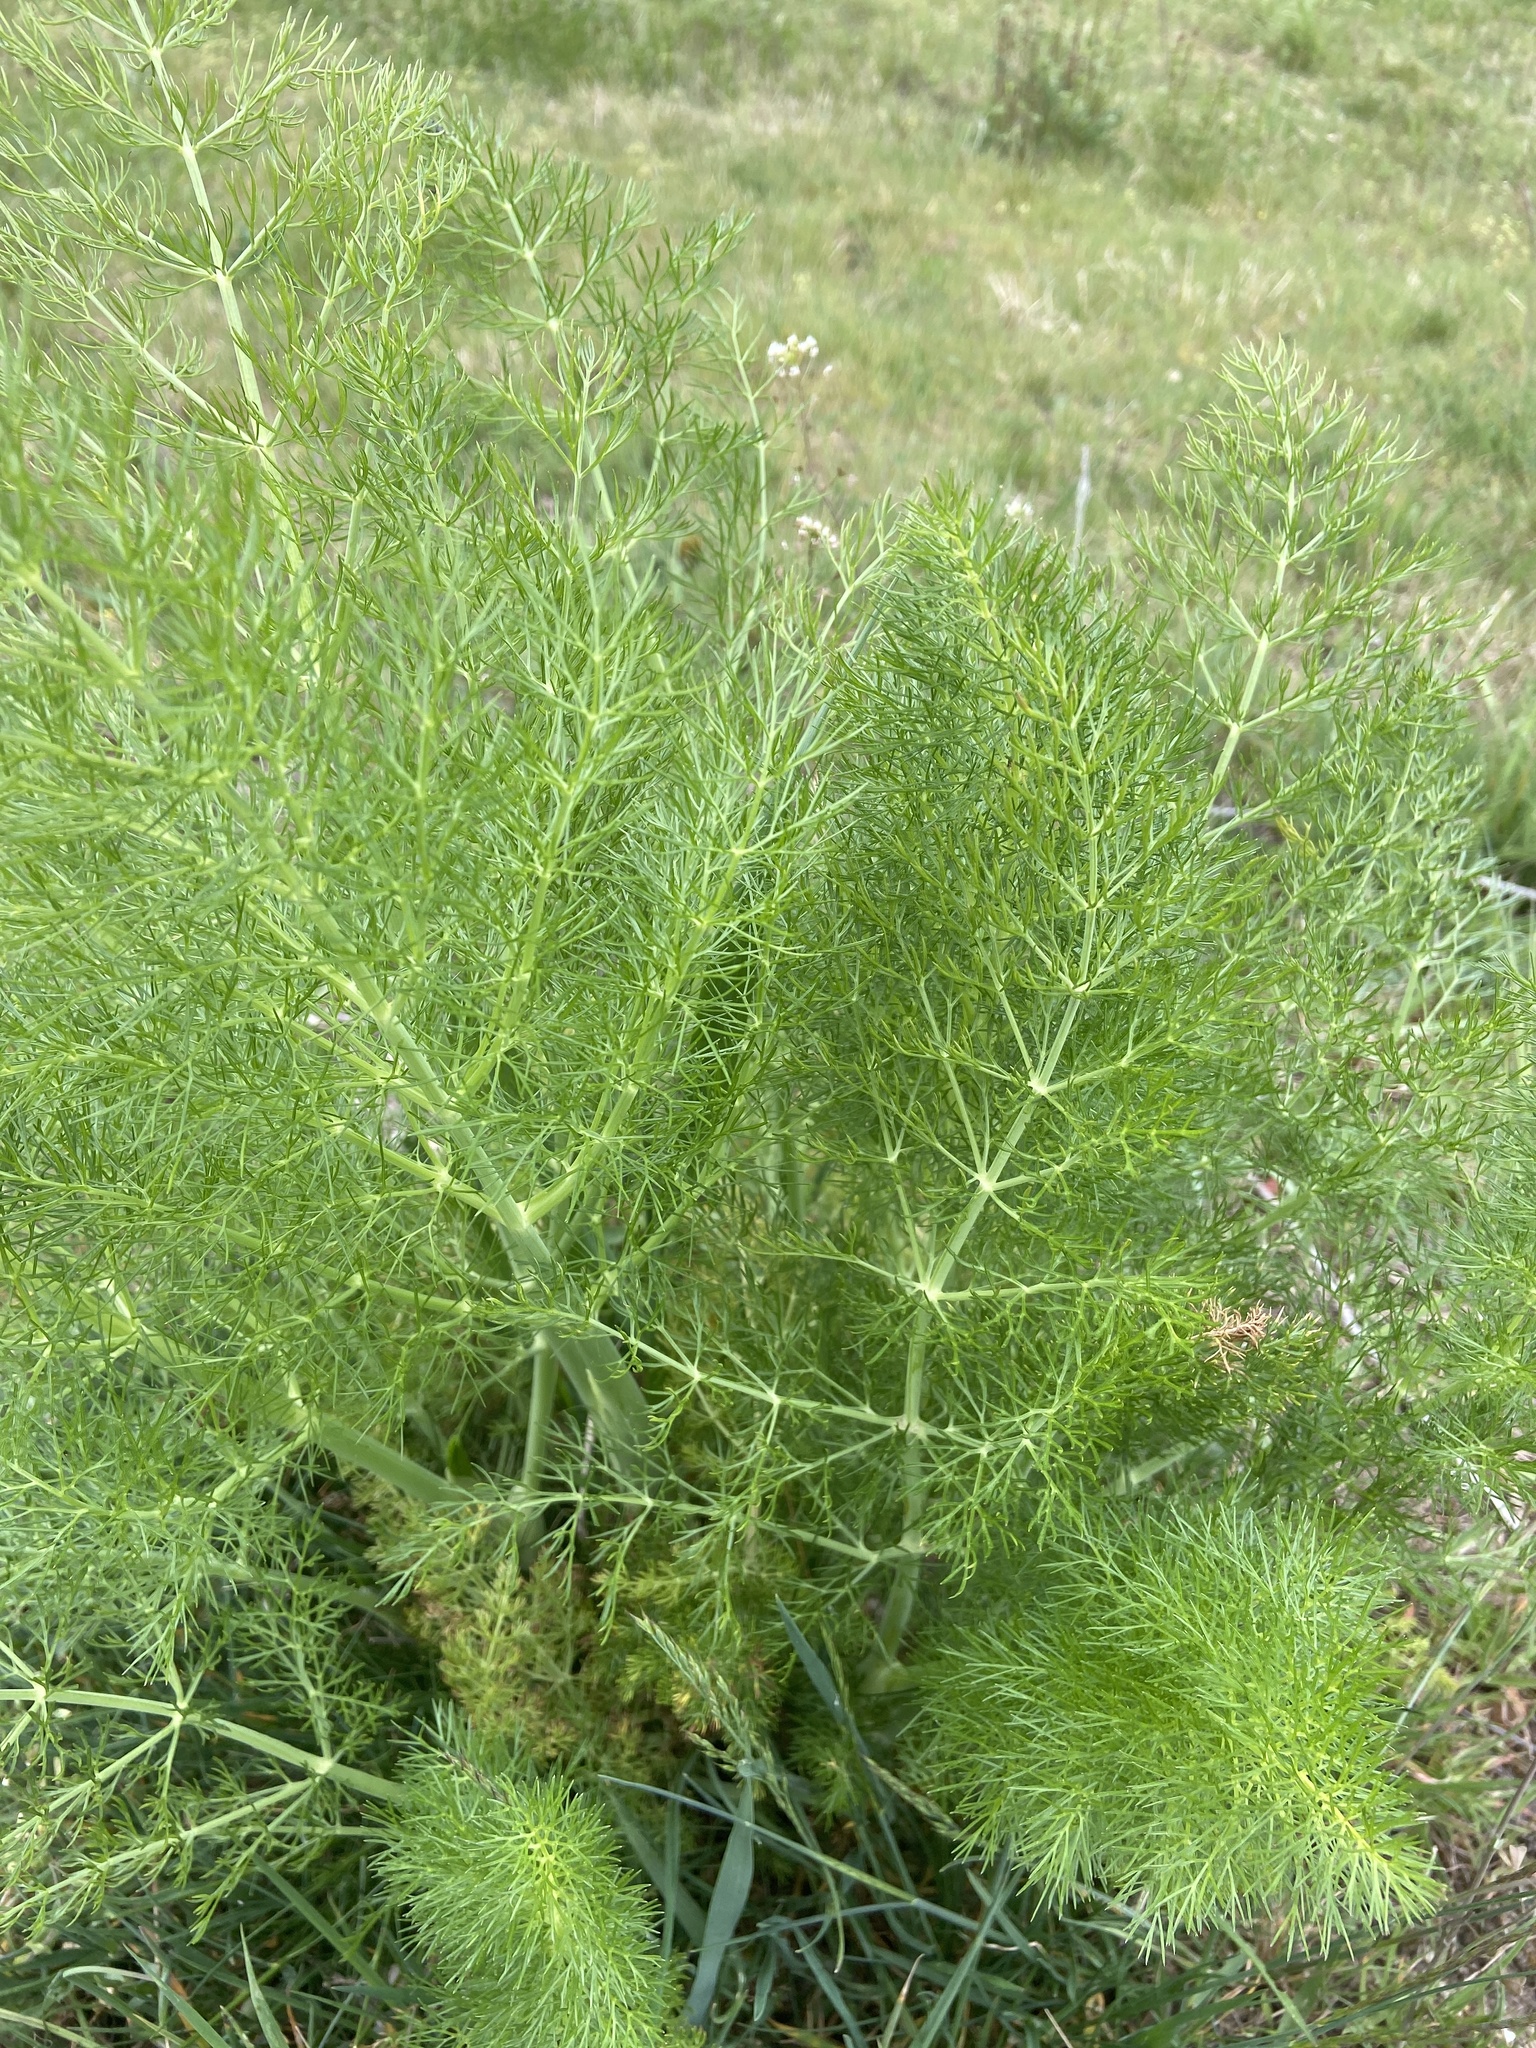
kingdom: Plantae
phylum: Tracheophyta
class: Magnoliopsida
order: Apiales
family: Apiaceae
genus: Foeniculum
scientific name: Foeniculum vulgare
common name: Fennel
